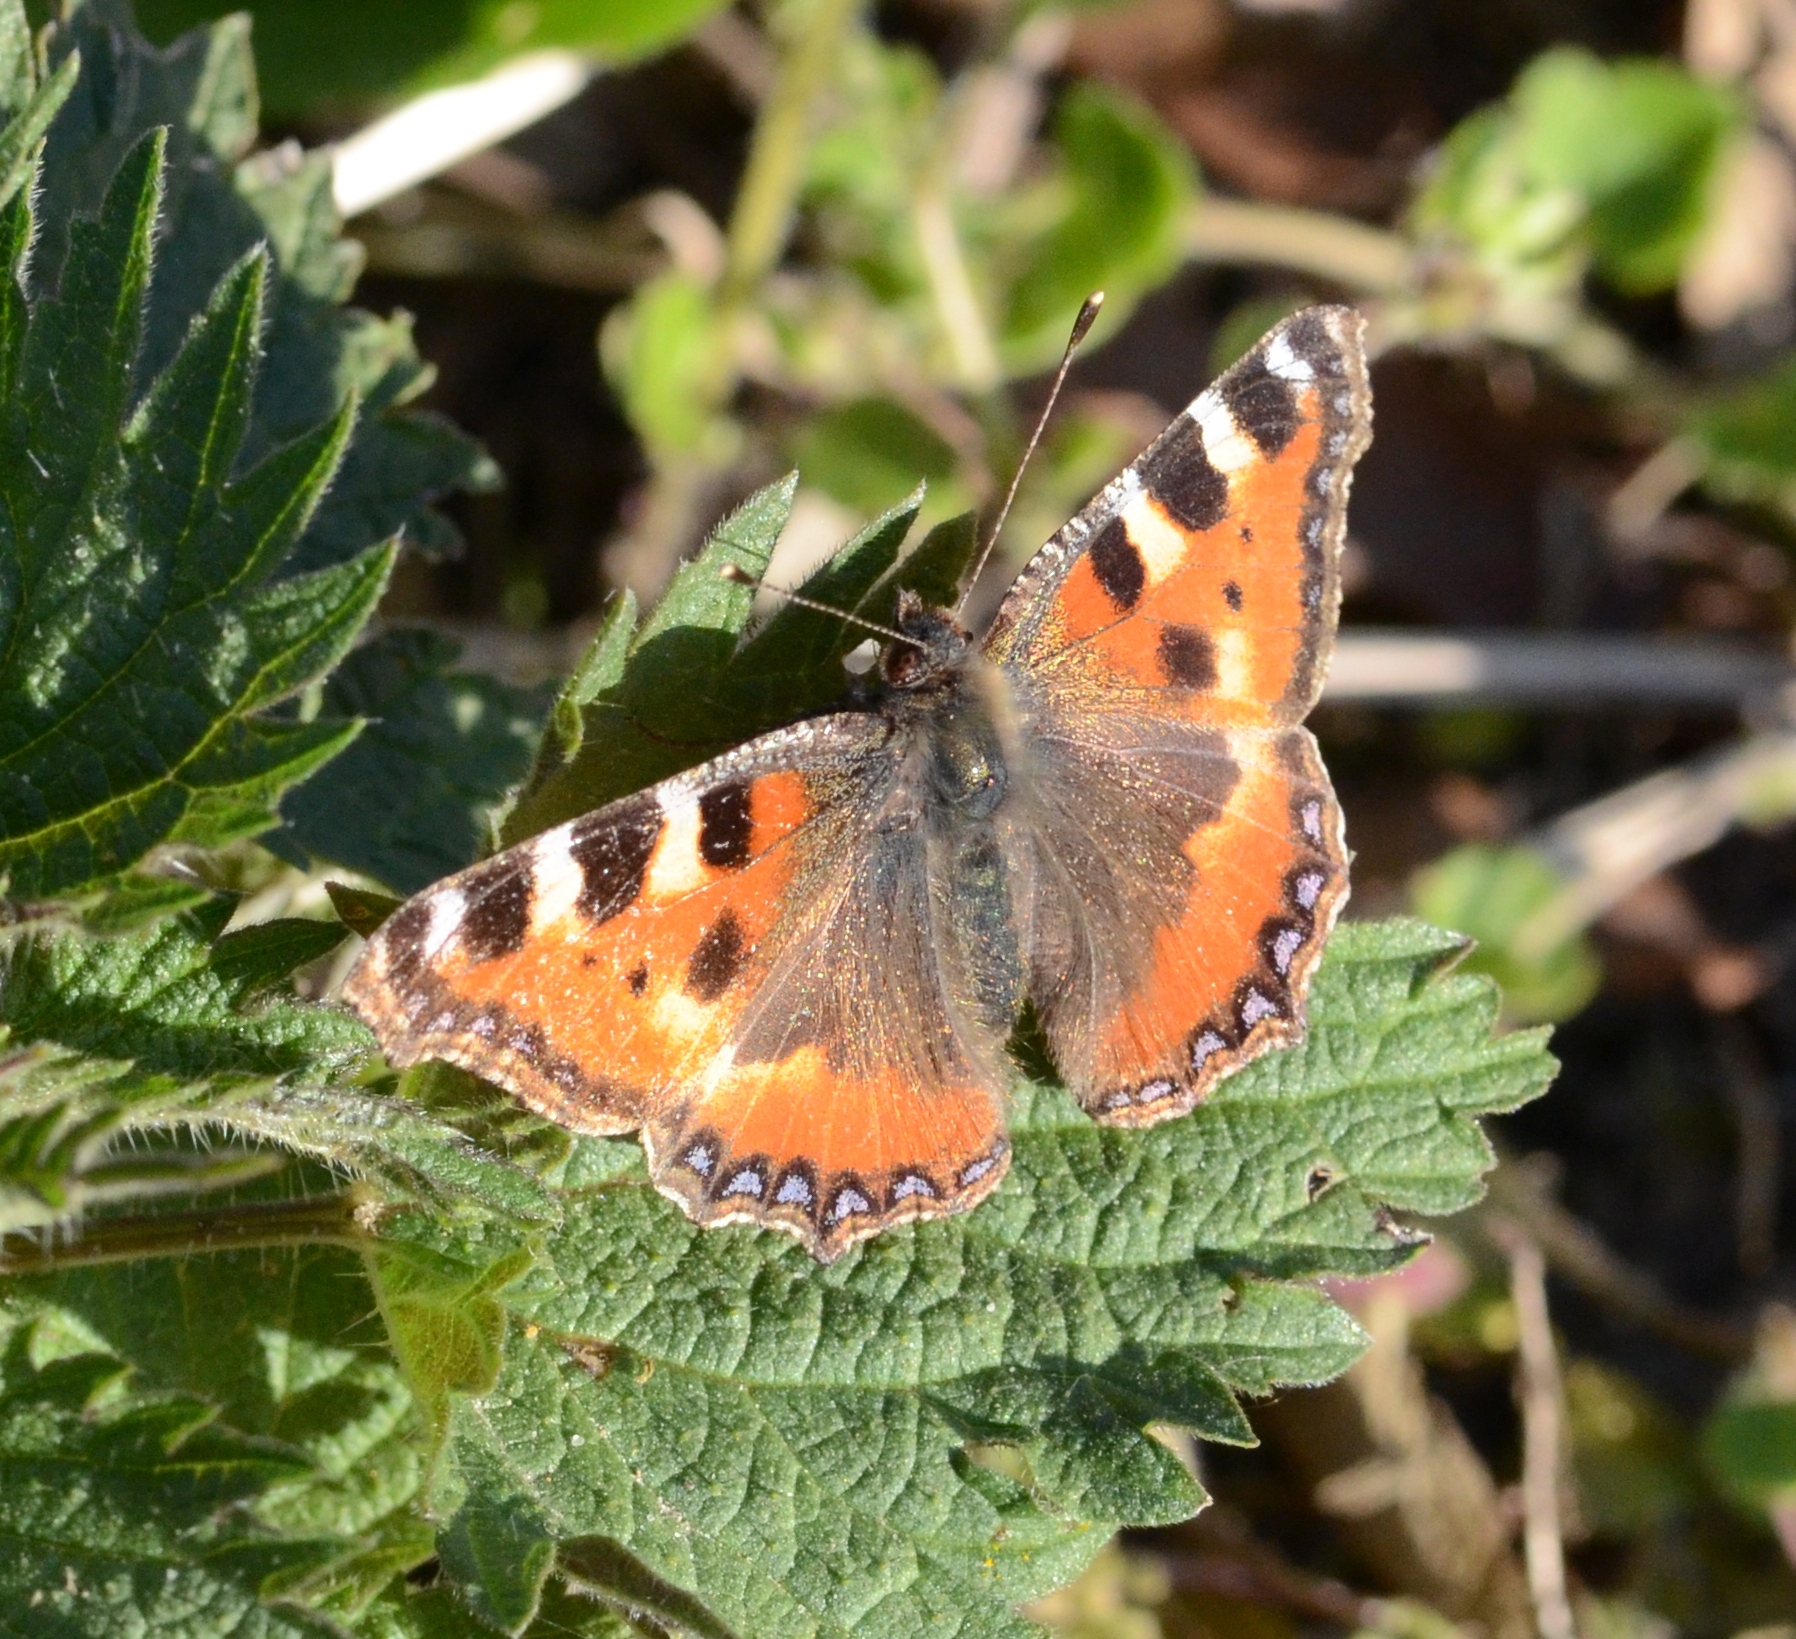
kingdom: Animalia
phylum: Arthropoda
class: Insecta
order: Lepidoptera
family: Nymphalidae
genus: Aglais
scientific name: Aglais urticae
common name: Small tortoiseshell
